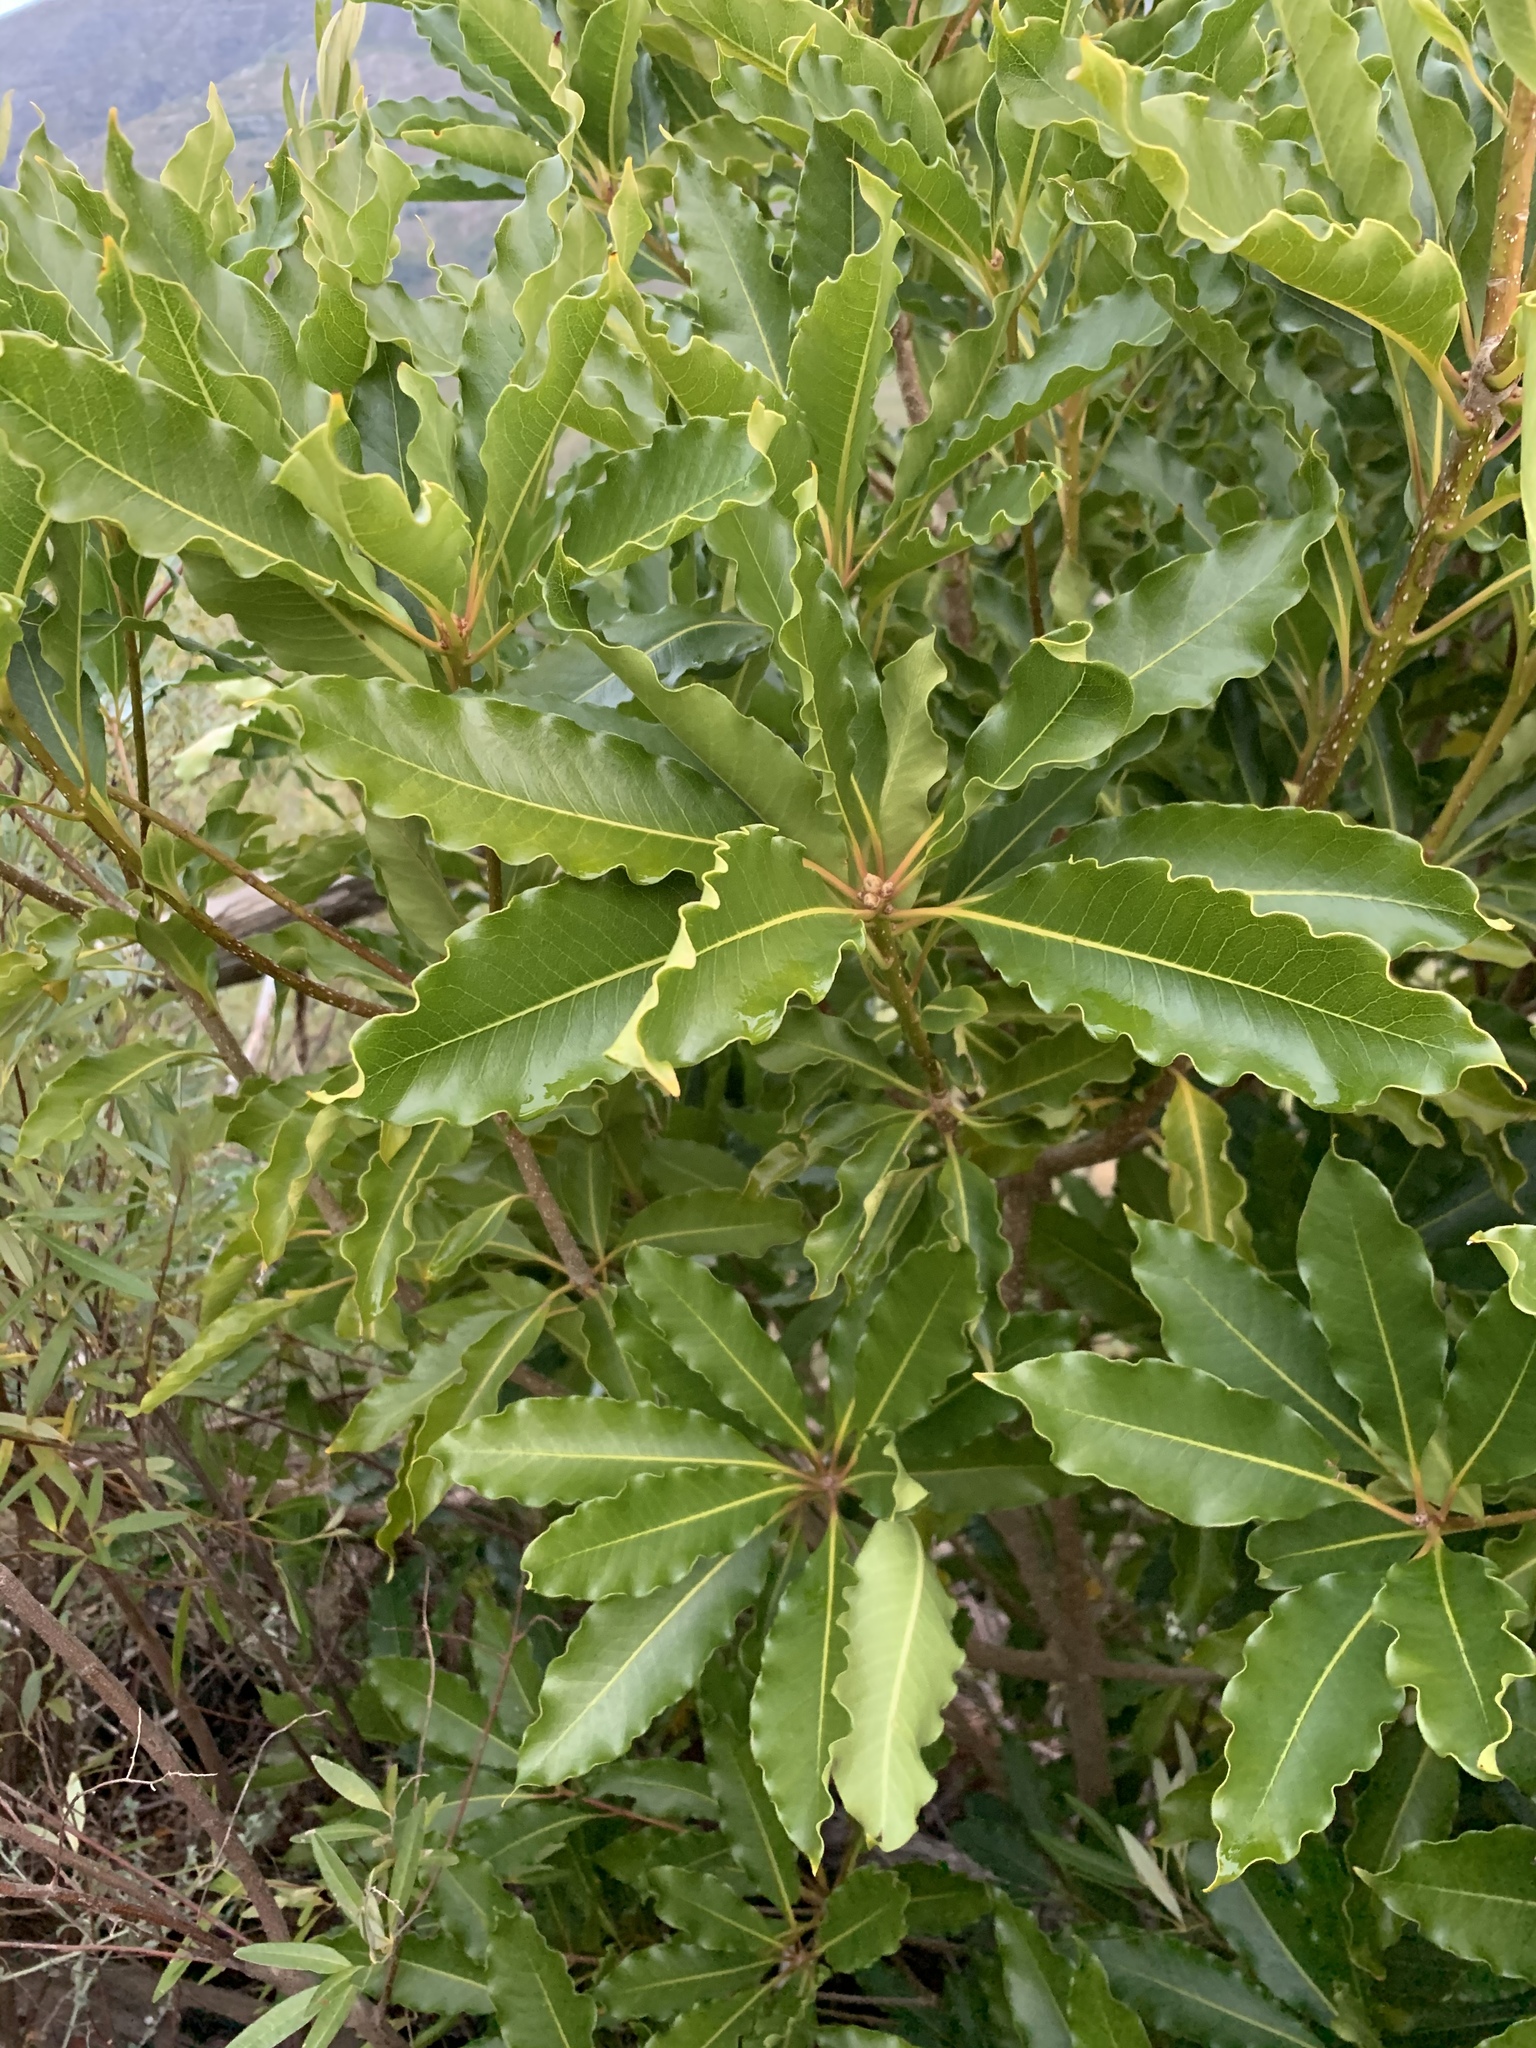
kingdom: Plantae
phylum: Tracheophyta
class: Magnoliopsida
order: Apiales
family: Pittosporaceae
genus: Pittosporum
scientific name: Pittosporum undulatum
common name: Australian cheesewood
